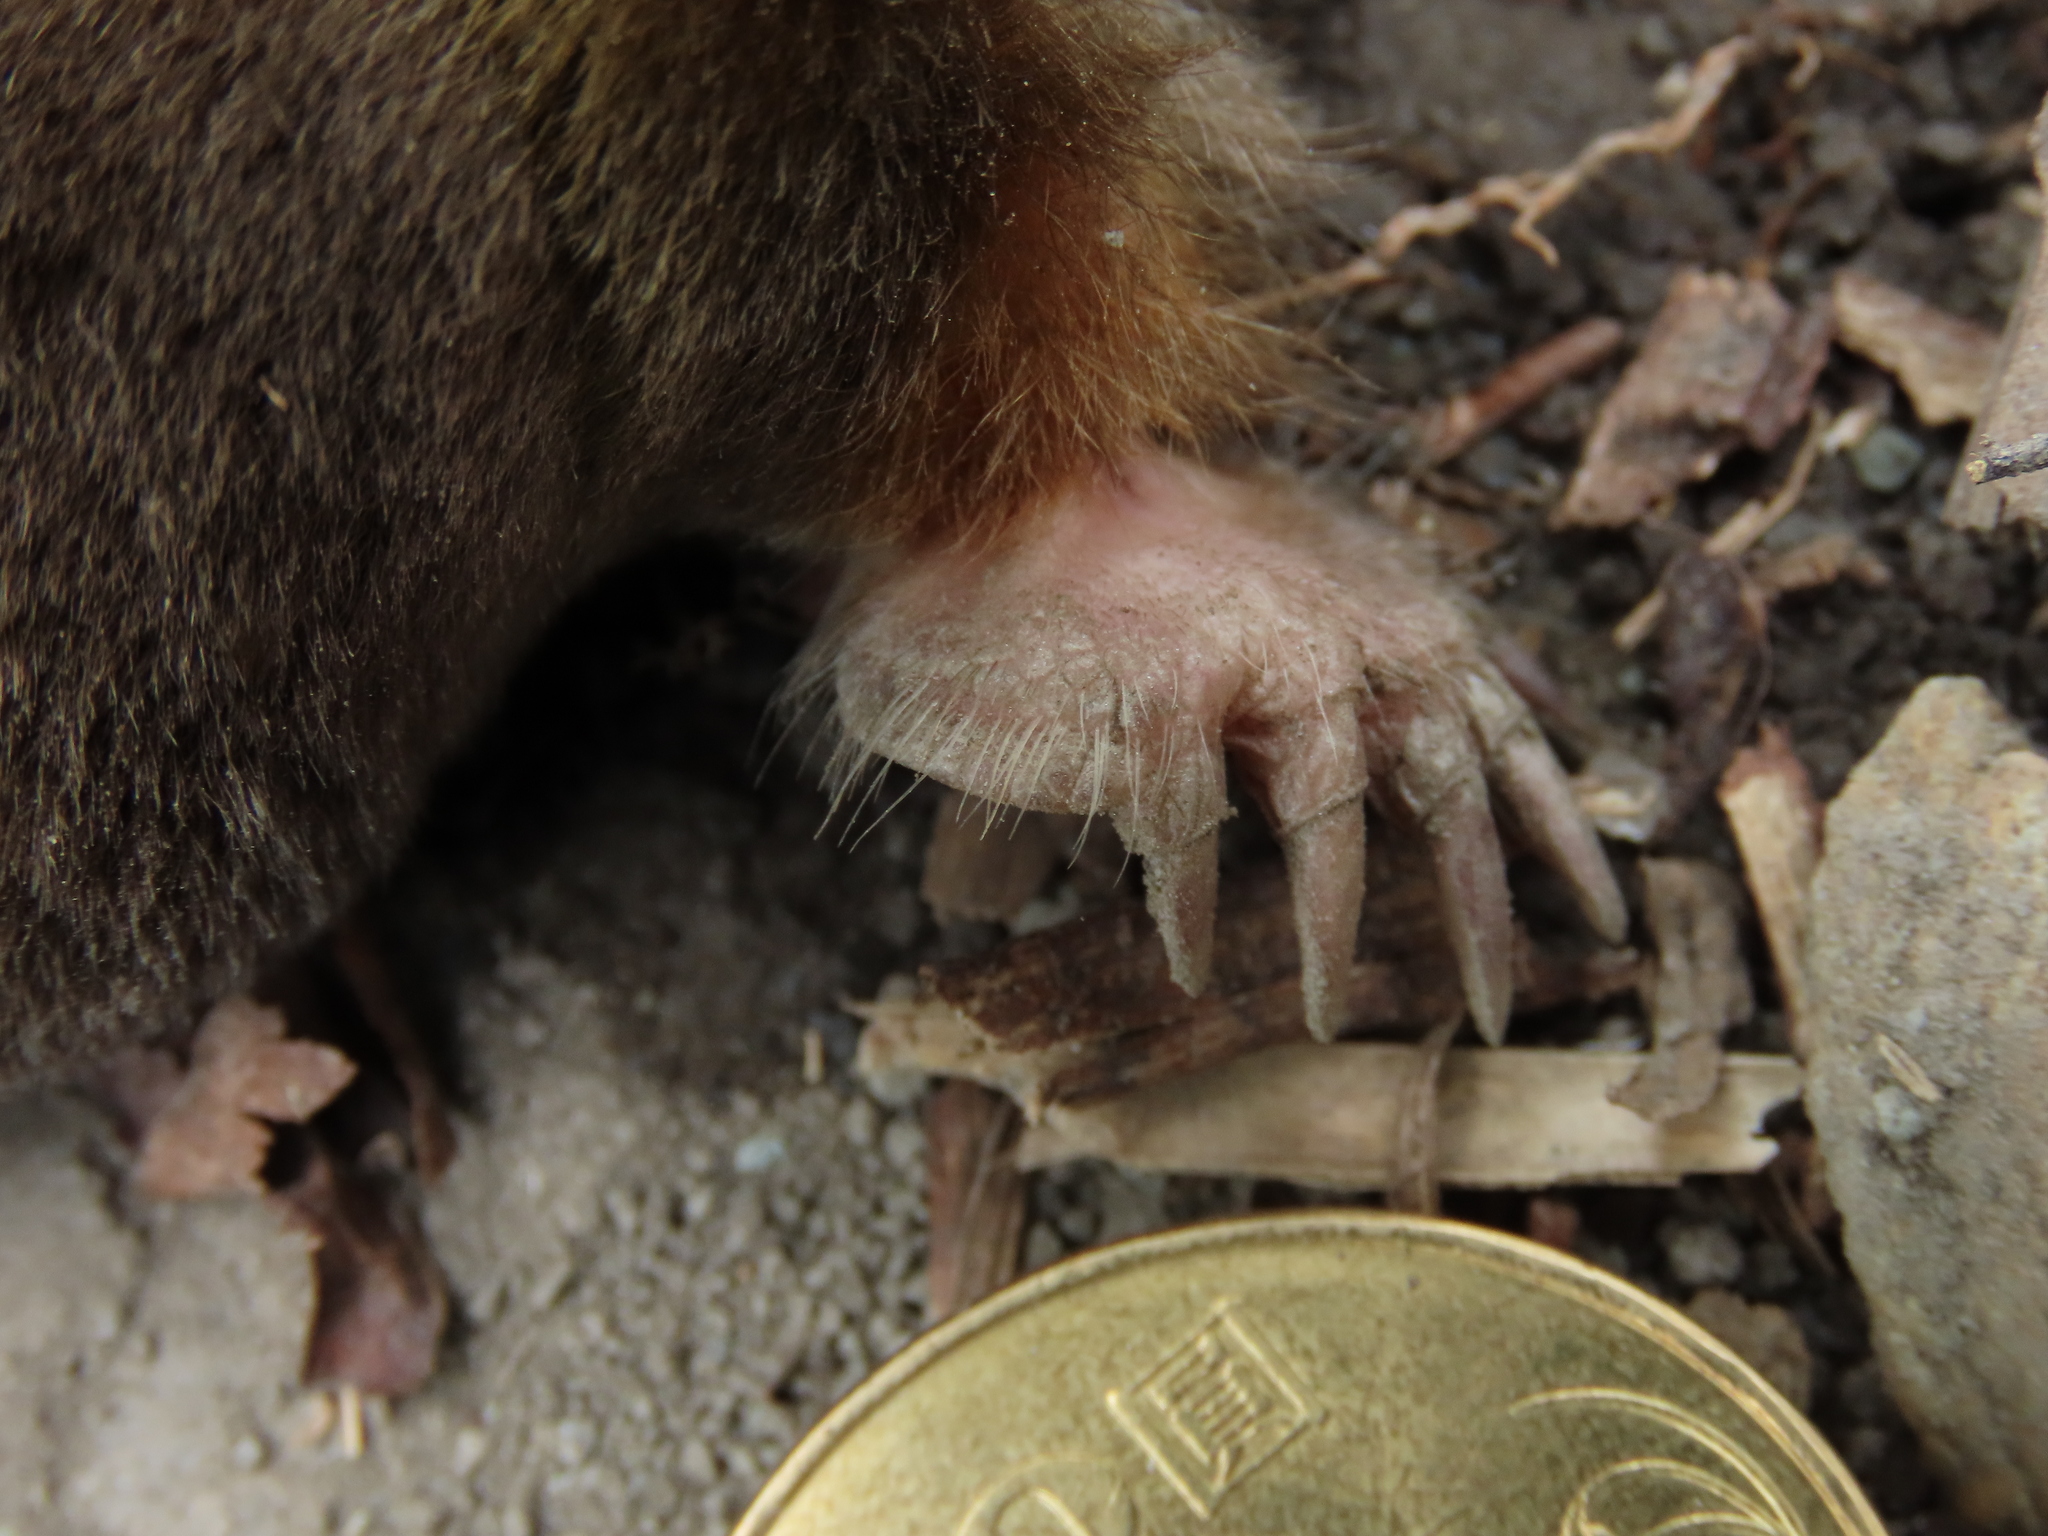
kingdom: Animalia
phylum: Chordata
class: Mammalia
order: Soricomorpha
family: Talpidae
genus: Mogera
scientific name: Mogera kanoana
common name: Kano’s mole
